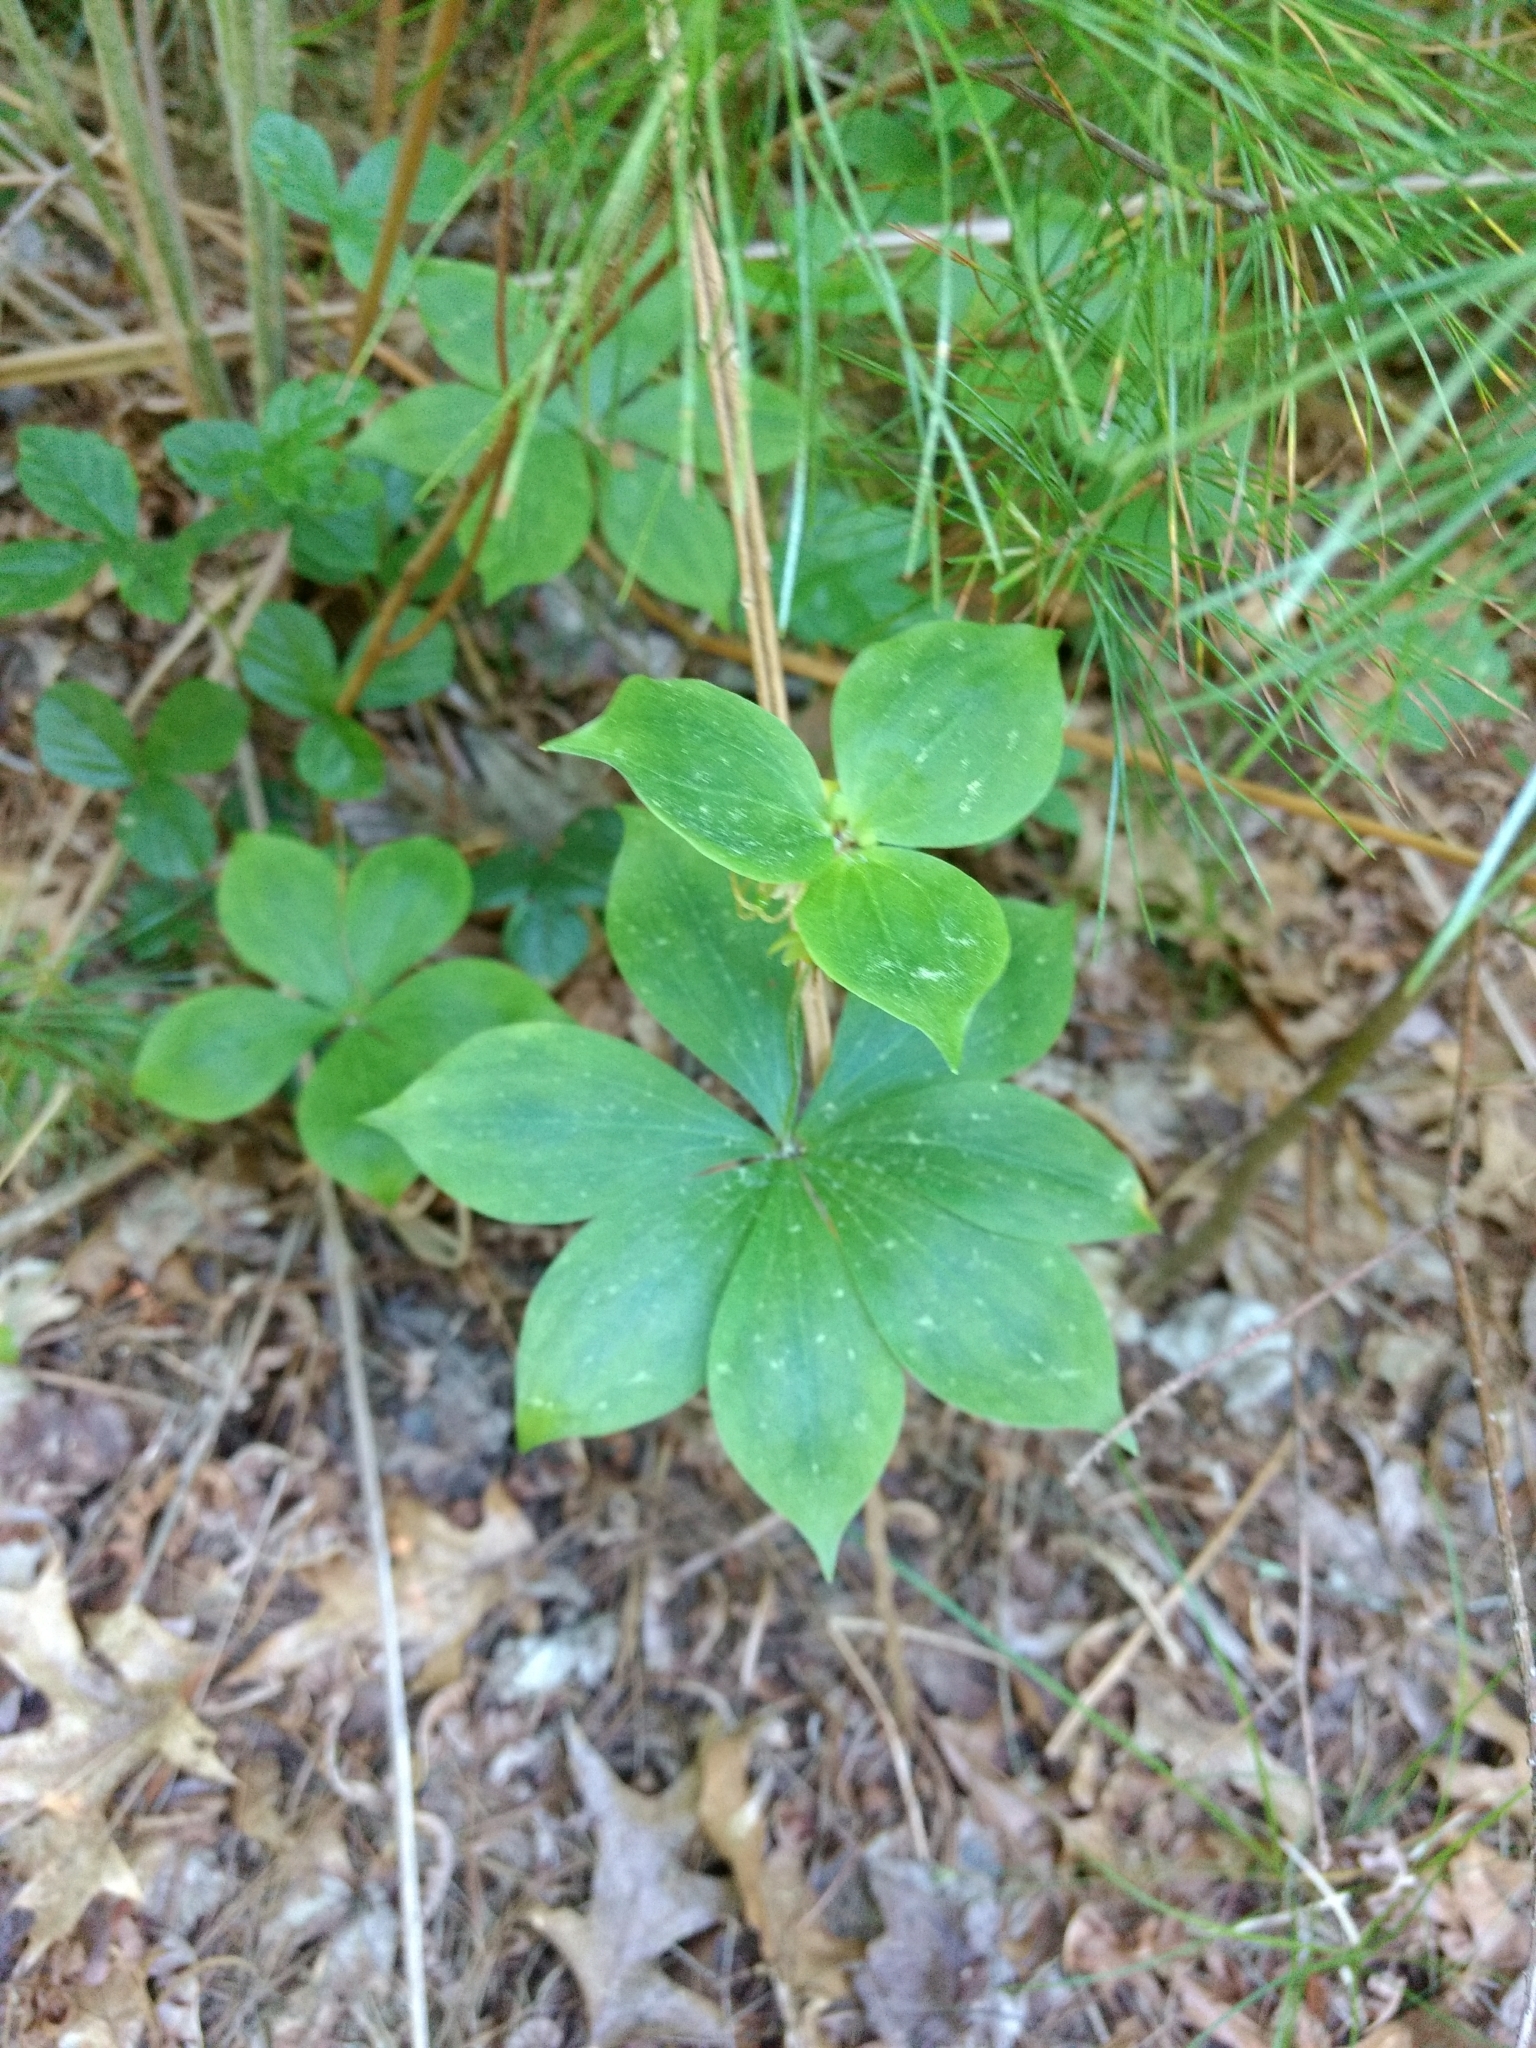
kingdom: Plantae
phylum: Tracheophyta
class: Liliopsida
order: Liliales
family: Liliaceae
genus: Medeola
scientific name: Medeola virginiana
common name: Indian cucumber-root
